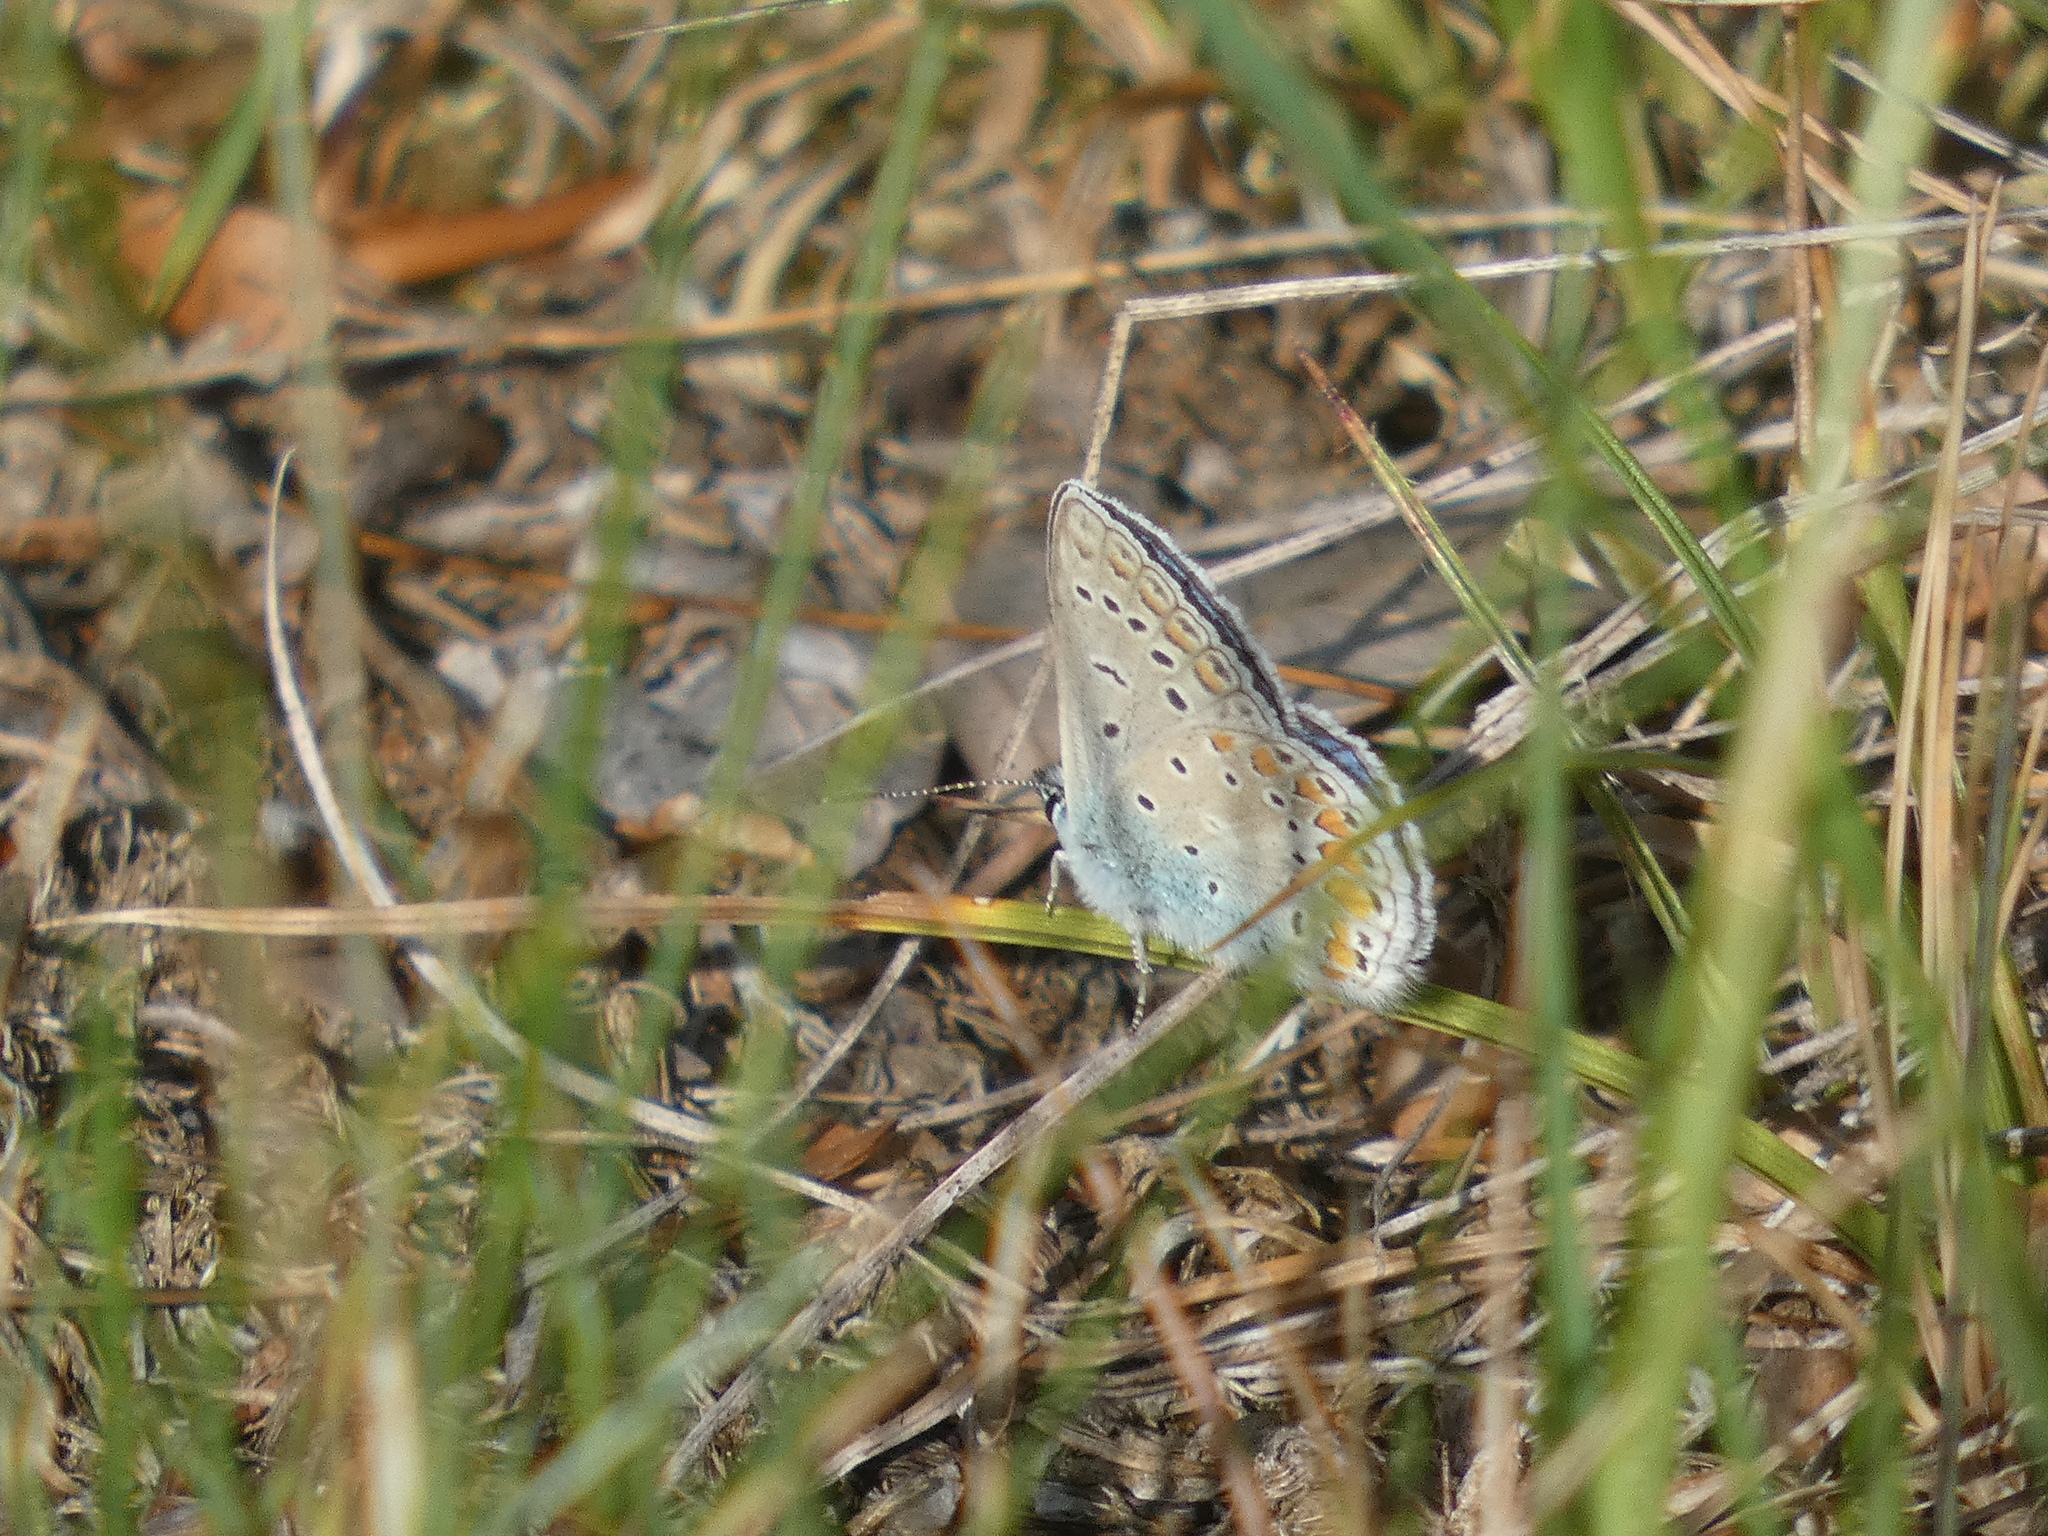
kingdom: Animalia
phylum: Arthropoda
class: Insecta
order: Lepidoptera
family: Lycaenidae
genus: Polyommatus
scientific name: Polyommatus icarus
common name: Common blue
